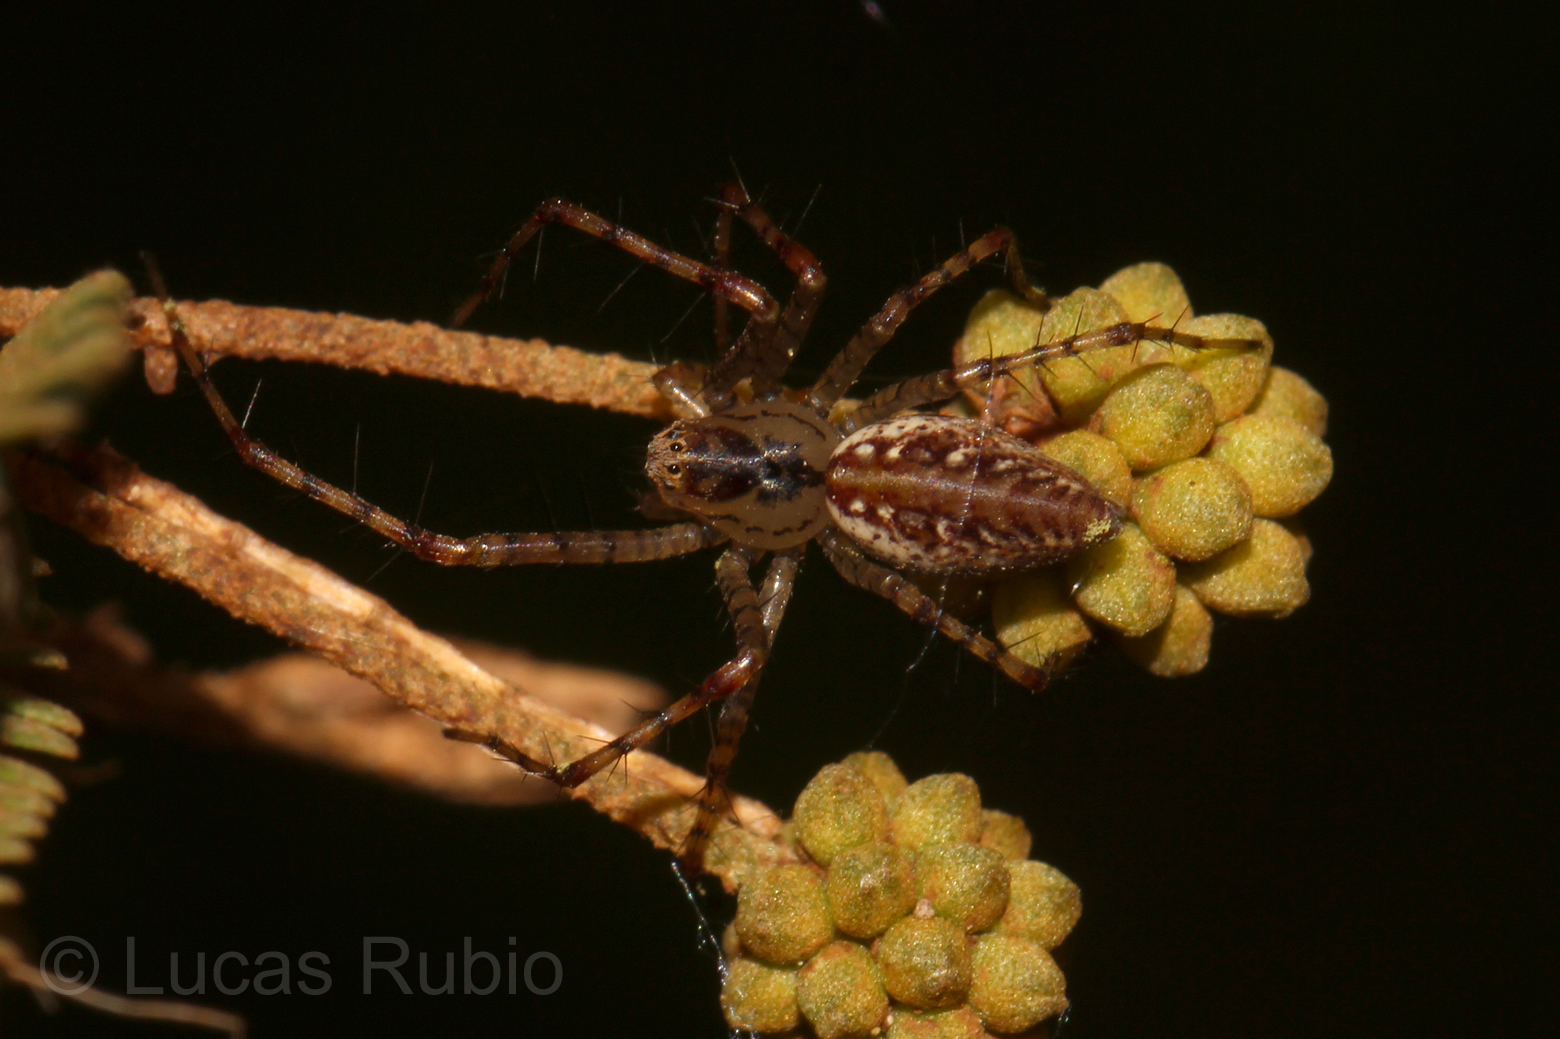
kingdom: Animalia
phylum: Arthropoda
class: Arachnida
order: Araneae
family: Oxyopidae
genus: Peucetia
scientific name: Peucetia flava
